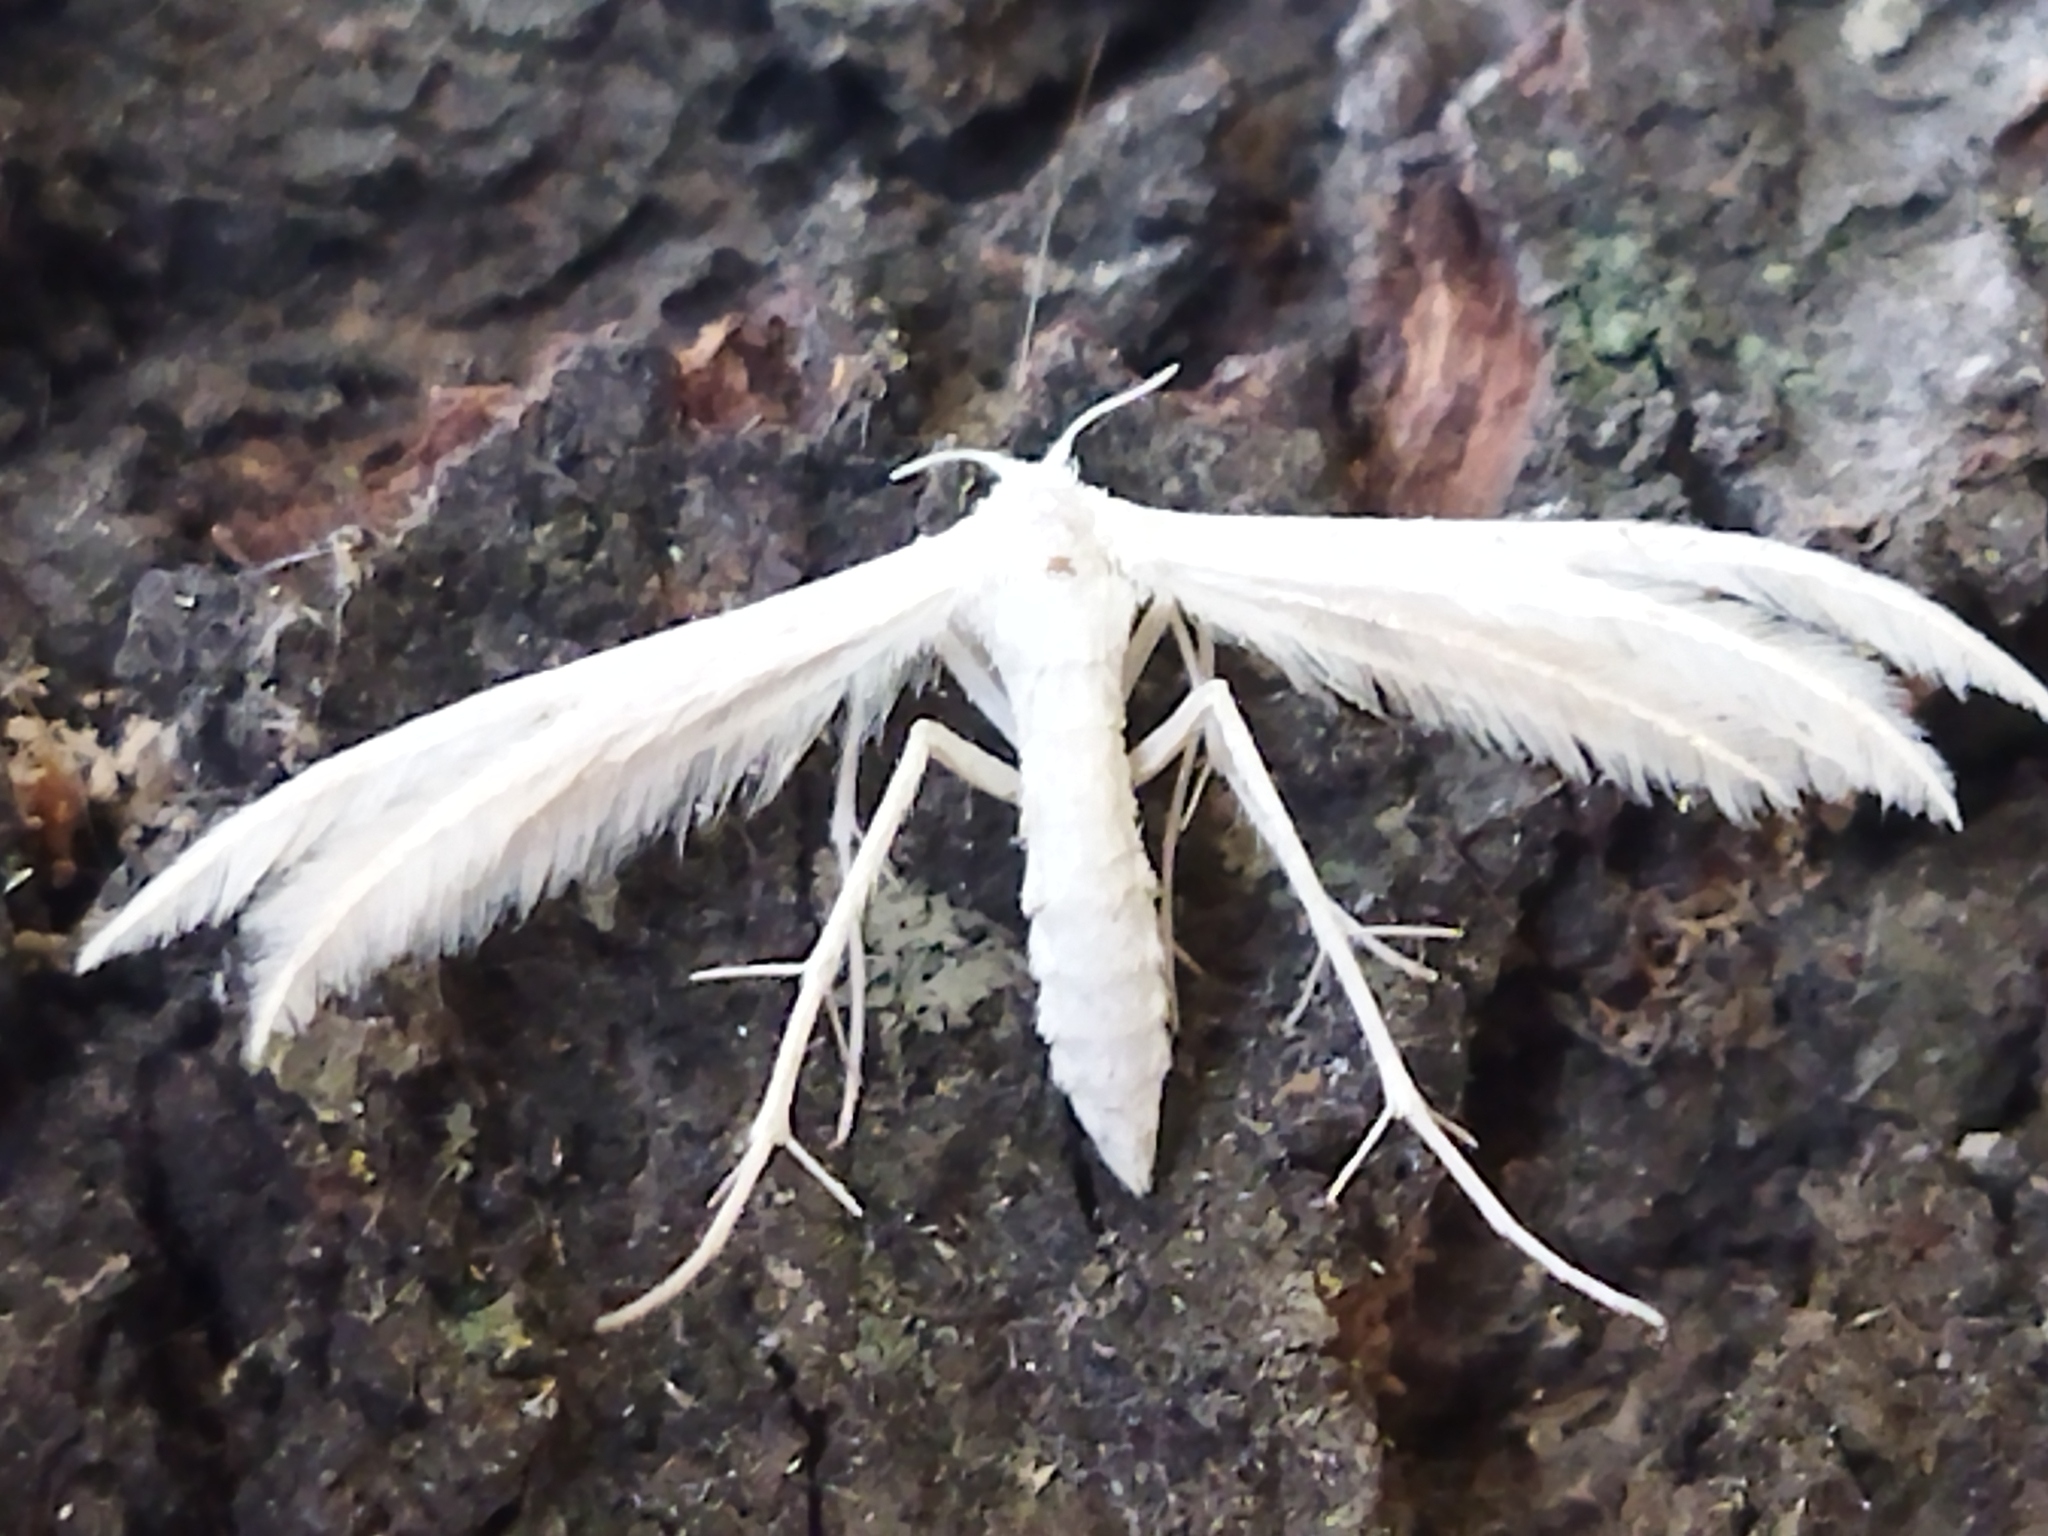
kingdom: Animalia
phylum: Arthropoda
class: Insecta
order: Lepidoptera
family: Pterophoridae
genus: Pterophorus
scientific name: Pterophorus pentadactyla
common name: White plume moth
